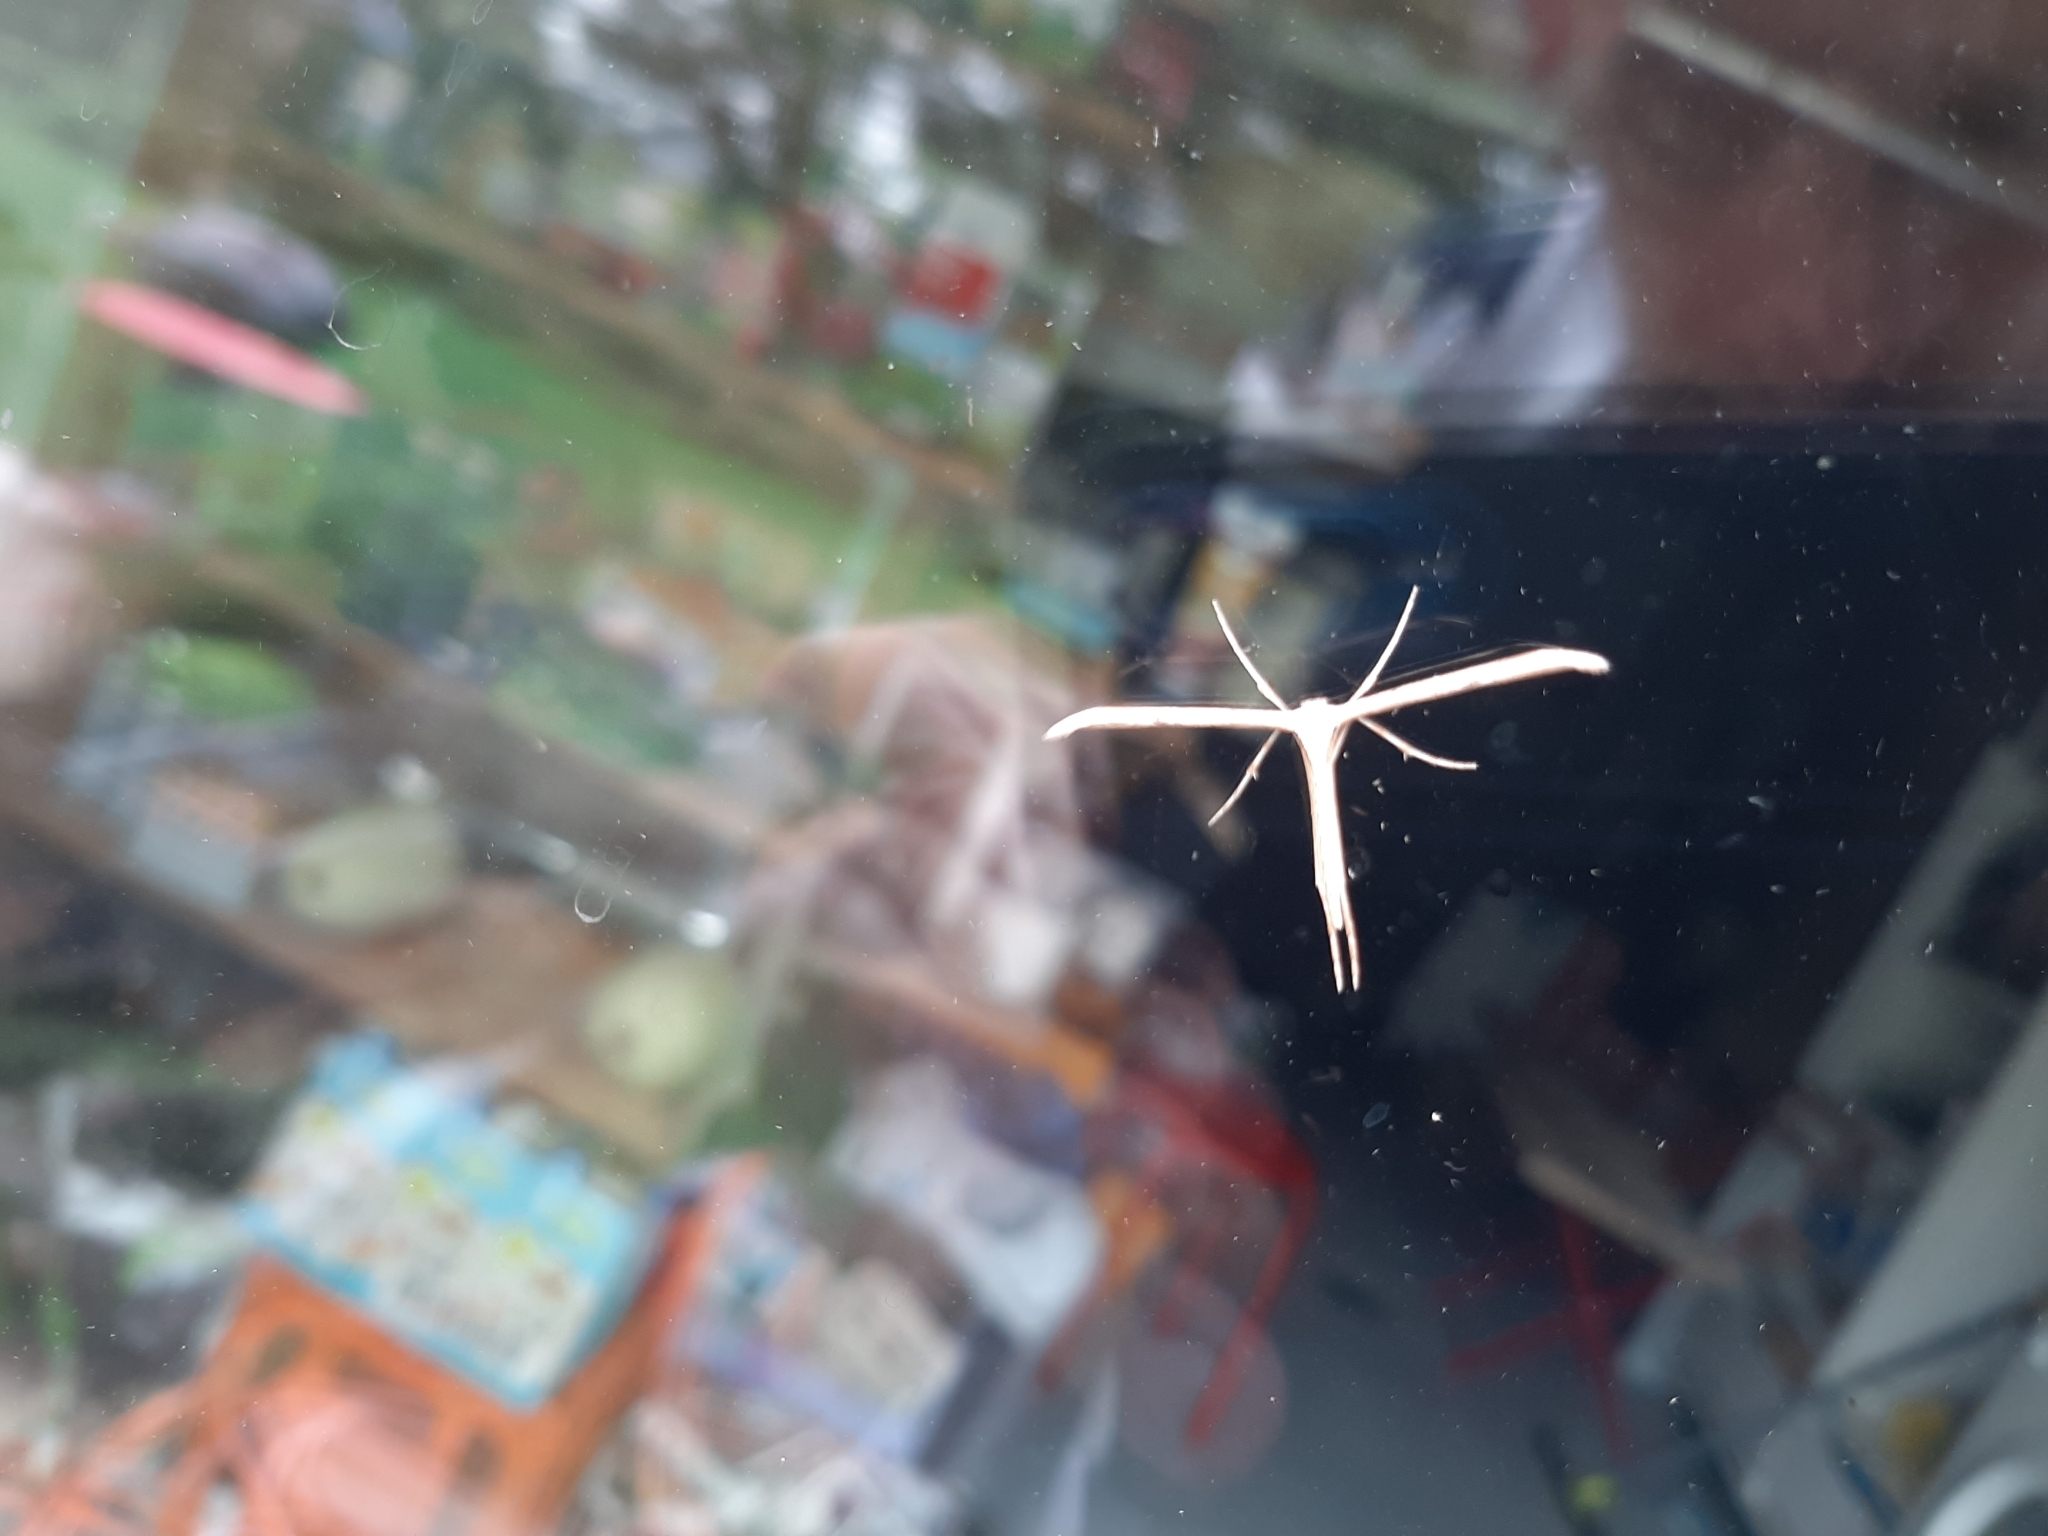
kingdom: Animalia
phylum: Arthropoda
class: Insecta
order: Lepidoptera
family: Pterophoridae
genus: Emmelina
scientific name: Emmelina monodactyla
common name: Common plume
